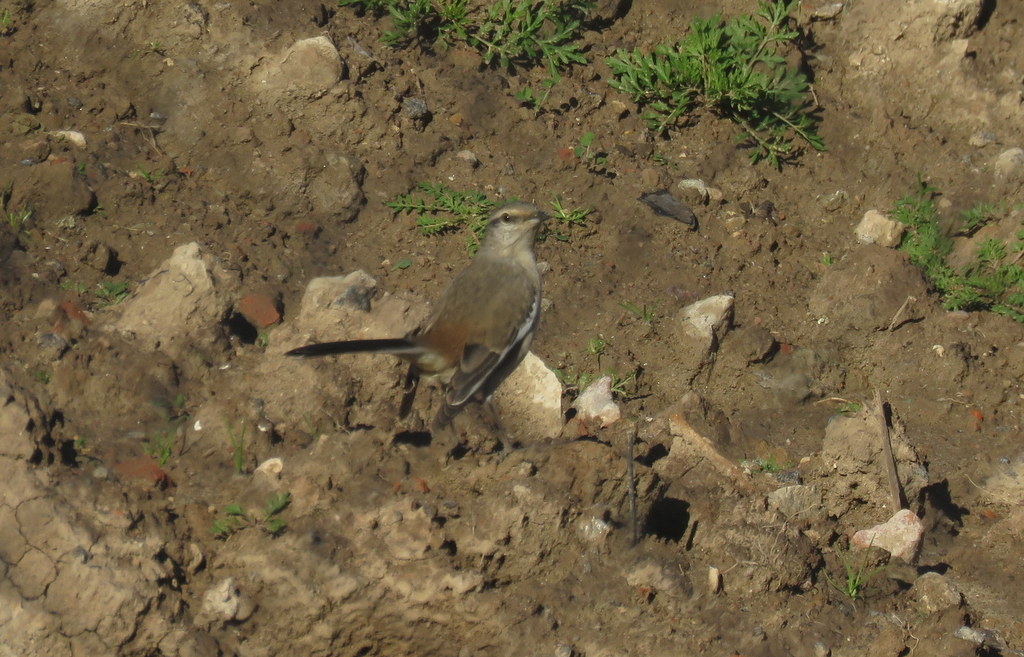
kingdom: Animalia
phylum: Chordata
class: Aves
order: Passeriformes
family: Mimidae
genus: Mimus
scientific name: Mimus triurus
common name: White-banded mockingbird
